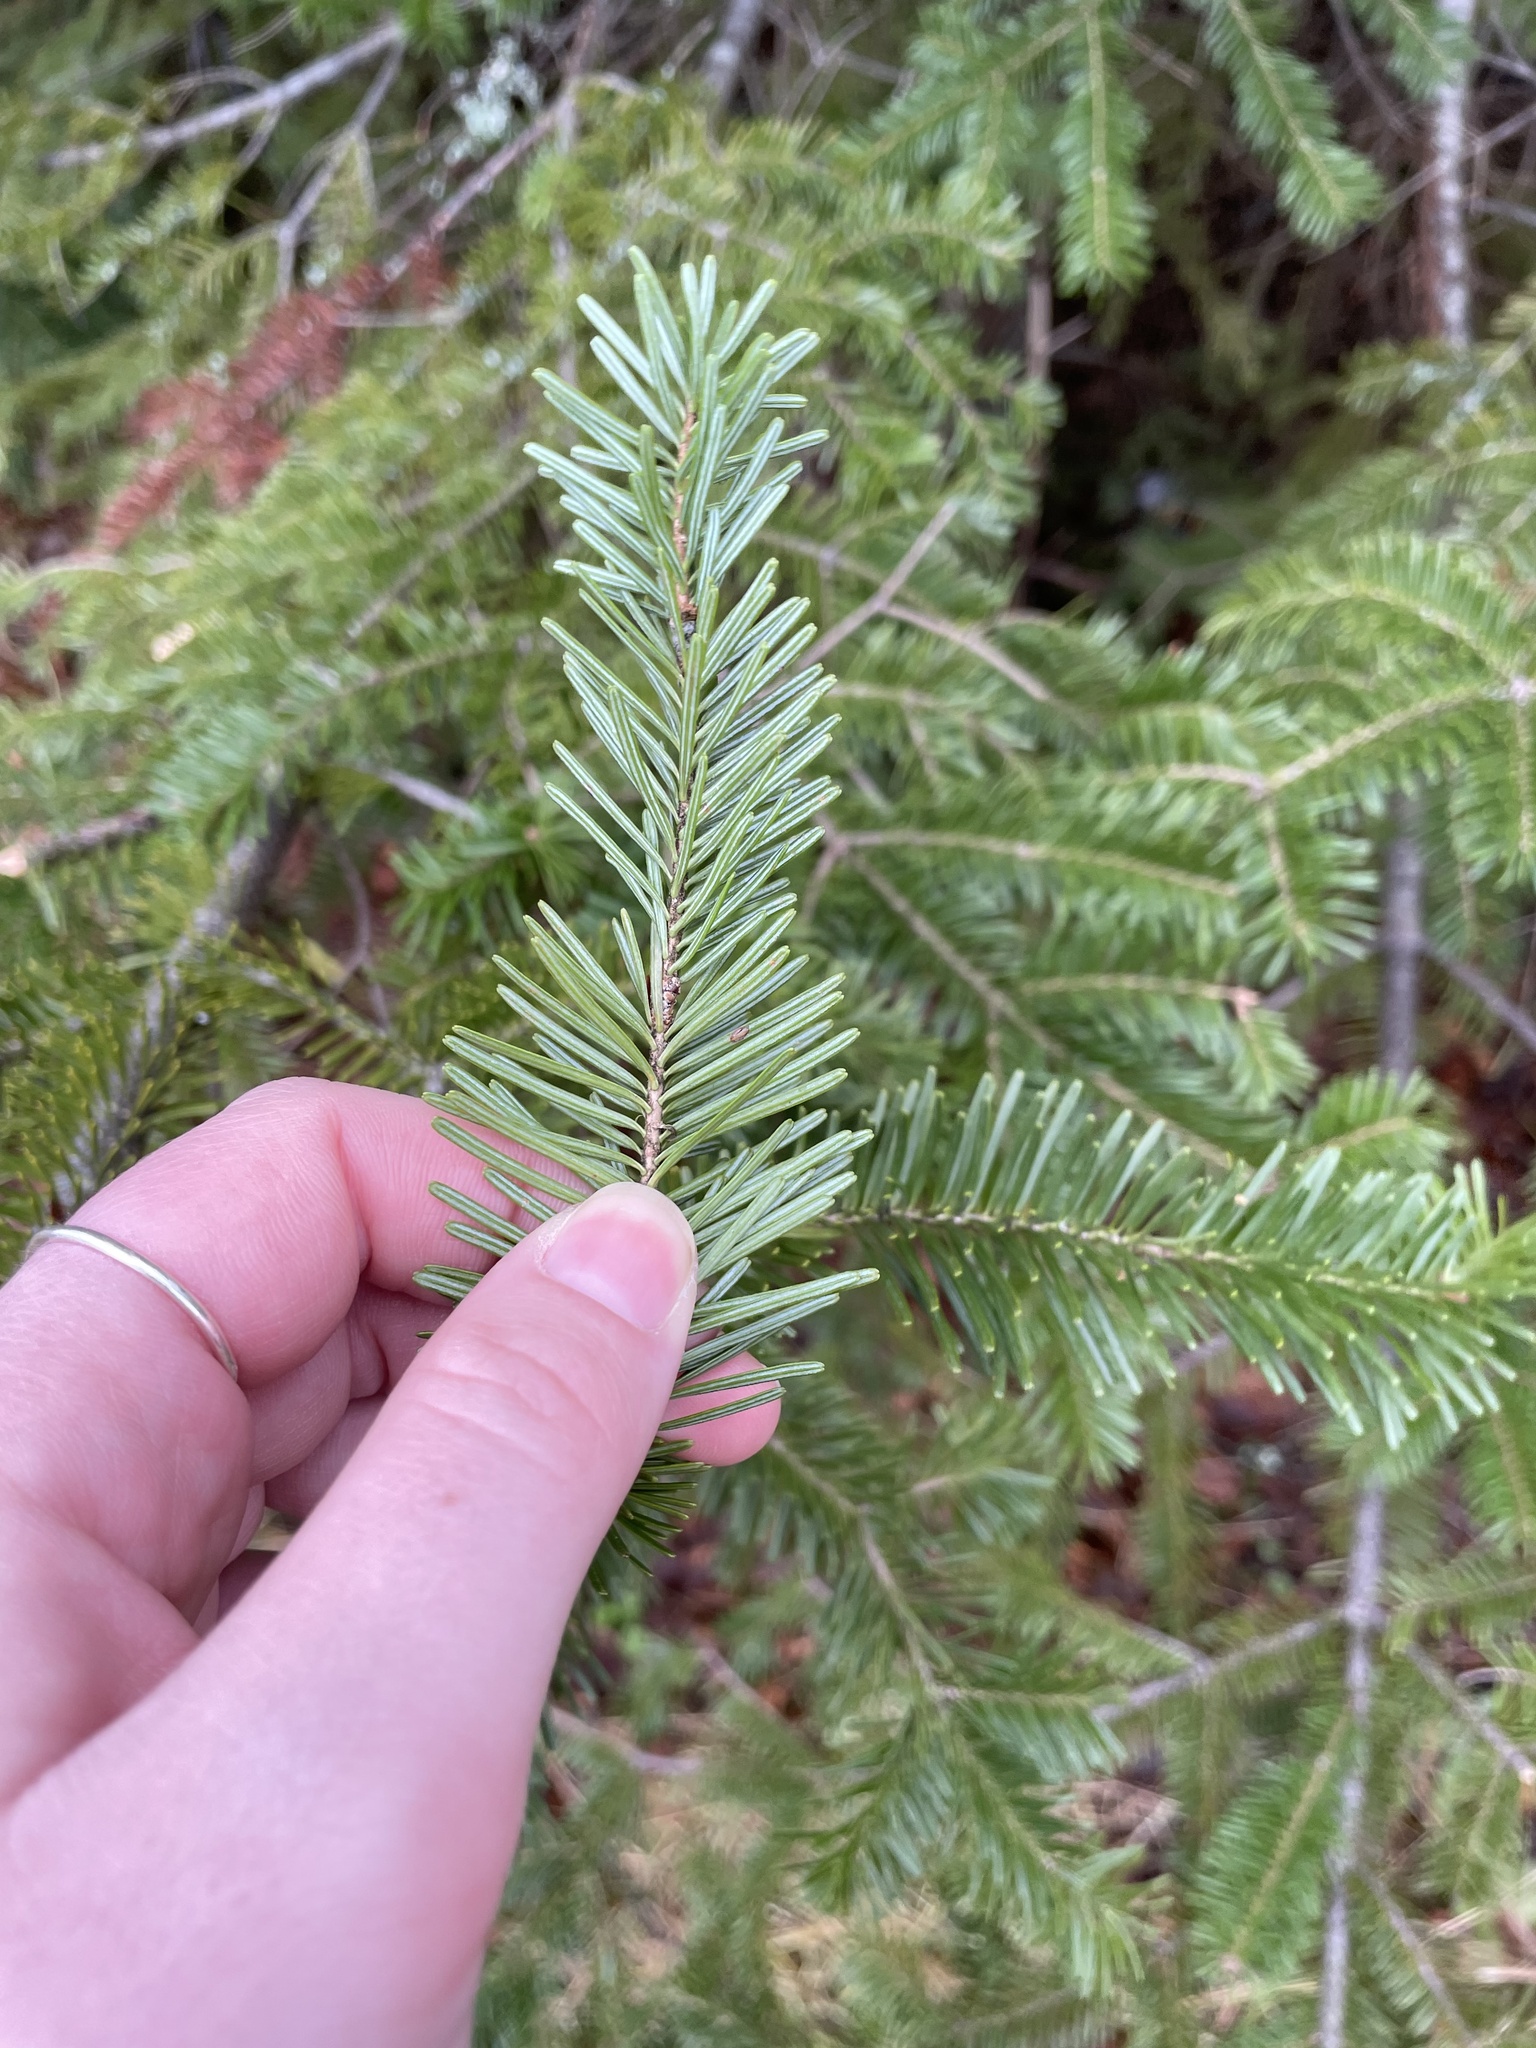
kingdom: Plantae
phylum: Tracheophyta
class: Pinopsida
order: Pinales
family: Pinaceae
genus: Abies
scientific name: Abies balsamea
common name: Balsam fir
